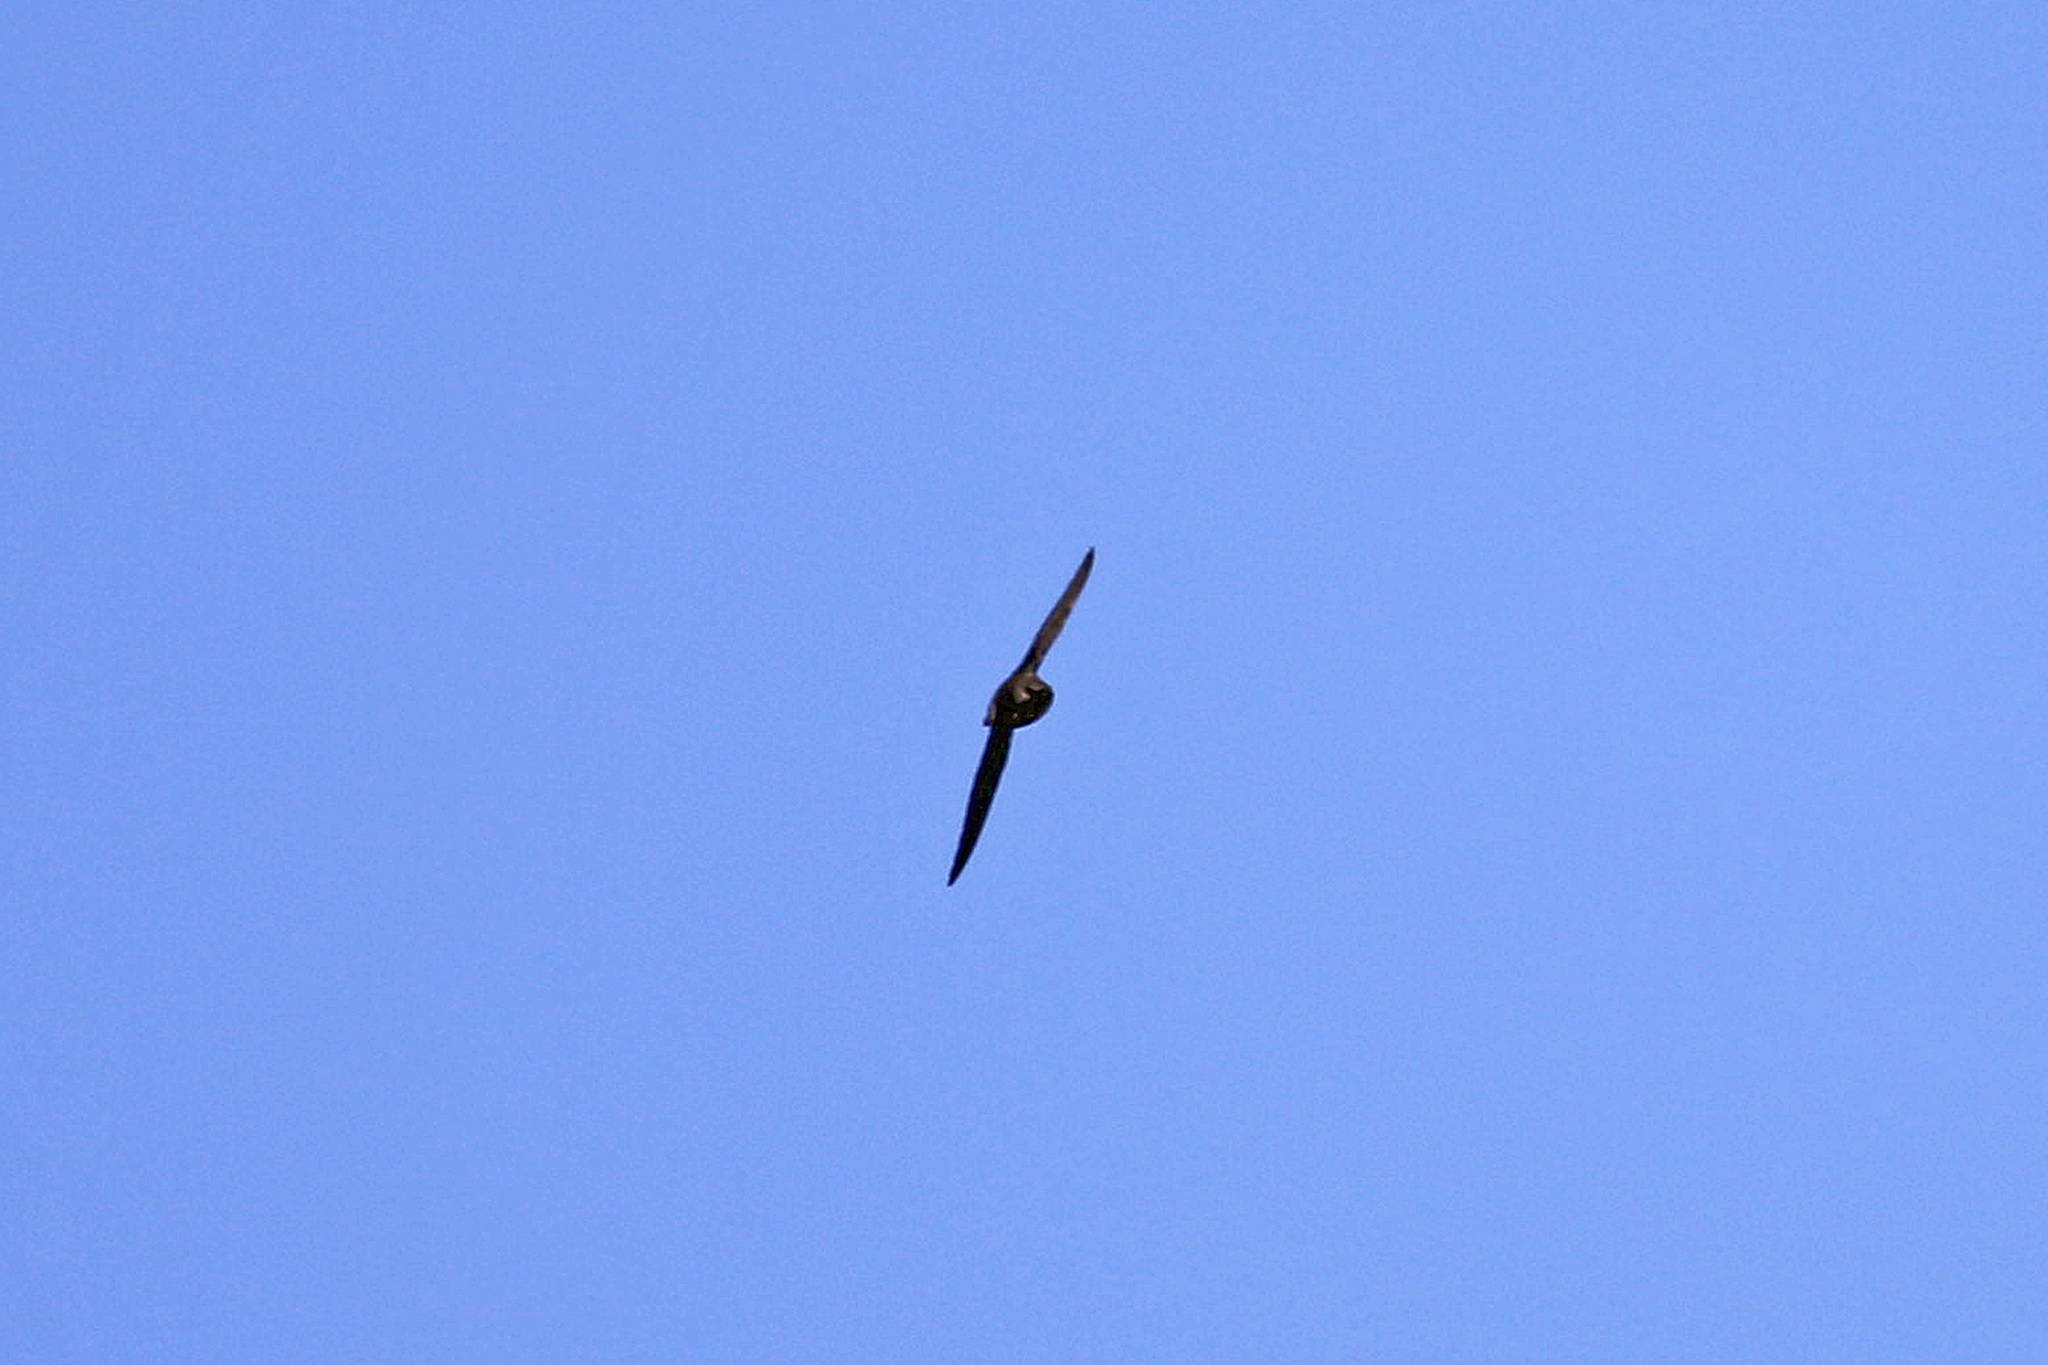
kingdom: Animalia
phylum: Chordata
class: Aves
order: Apodiformes
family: Apodidae
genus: Chaetura
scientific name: Chaetura pelagica
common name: Chimney swift
